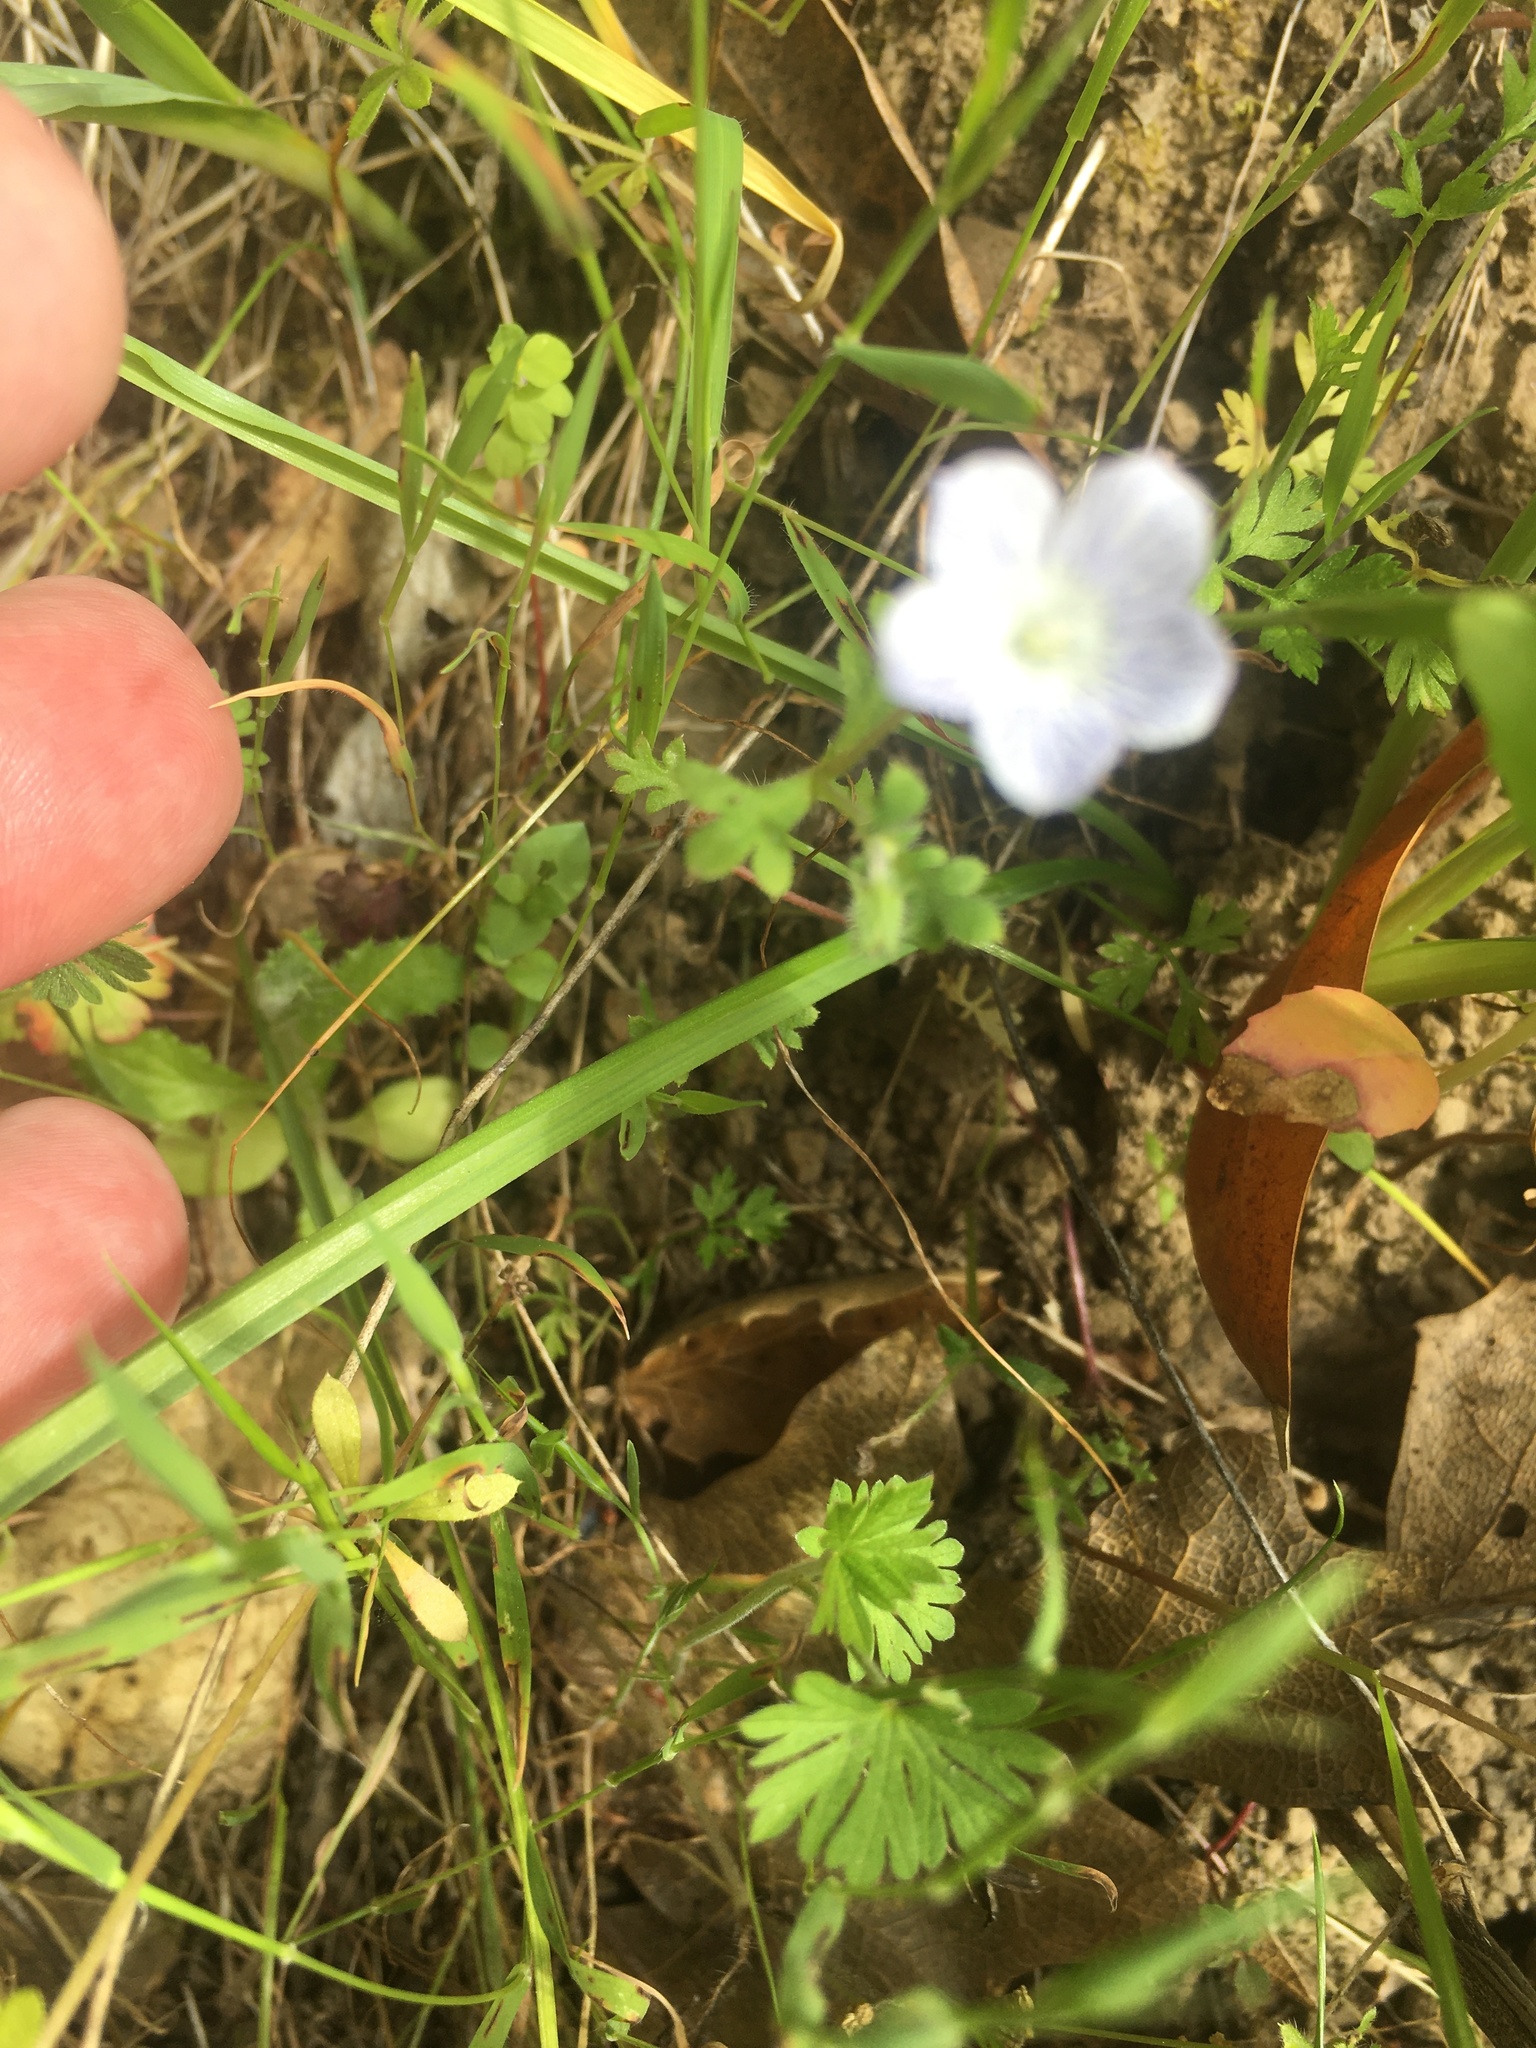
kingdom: Plantae
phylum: Tracheophyta
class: Magnoliopsida
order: Boraginales
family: Hydrophyllaceae
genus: Nemophila
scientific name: Nemophila menziesii
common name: Baby's-blue-eyes
